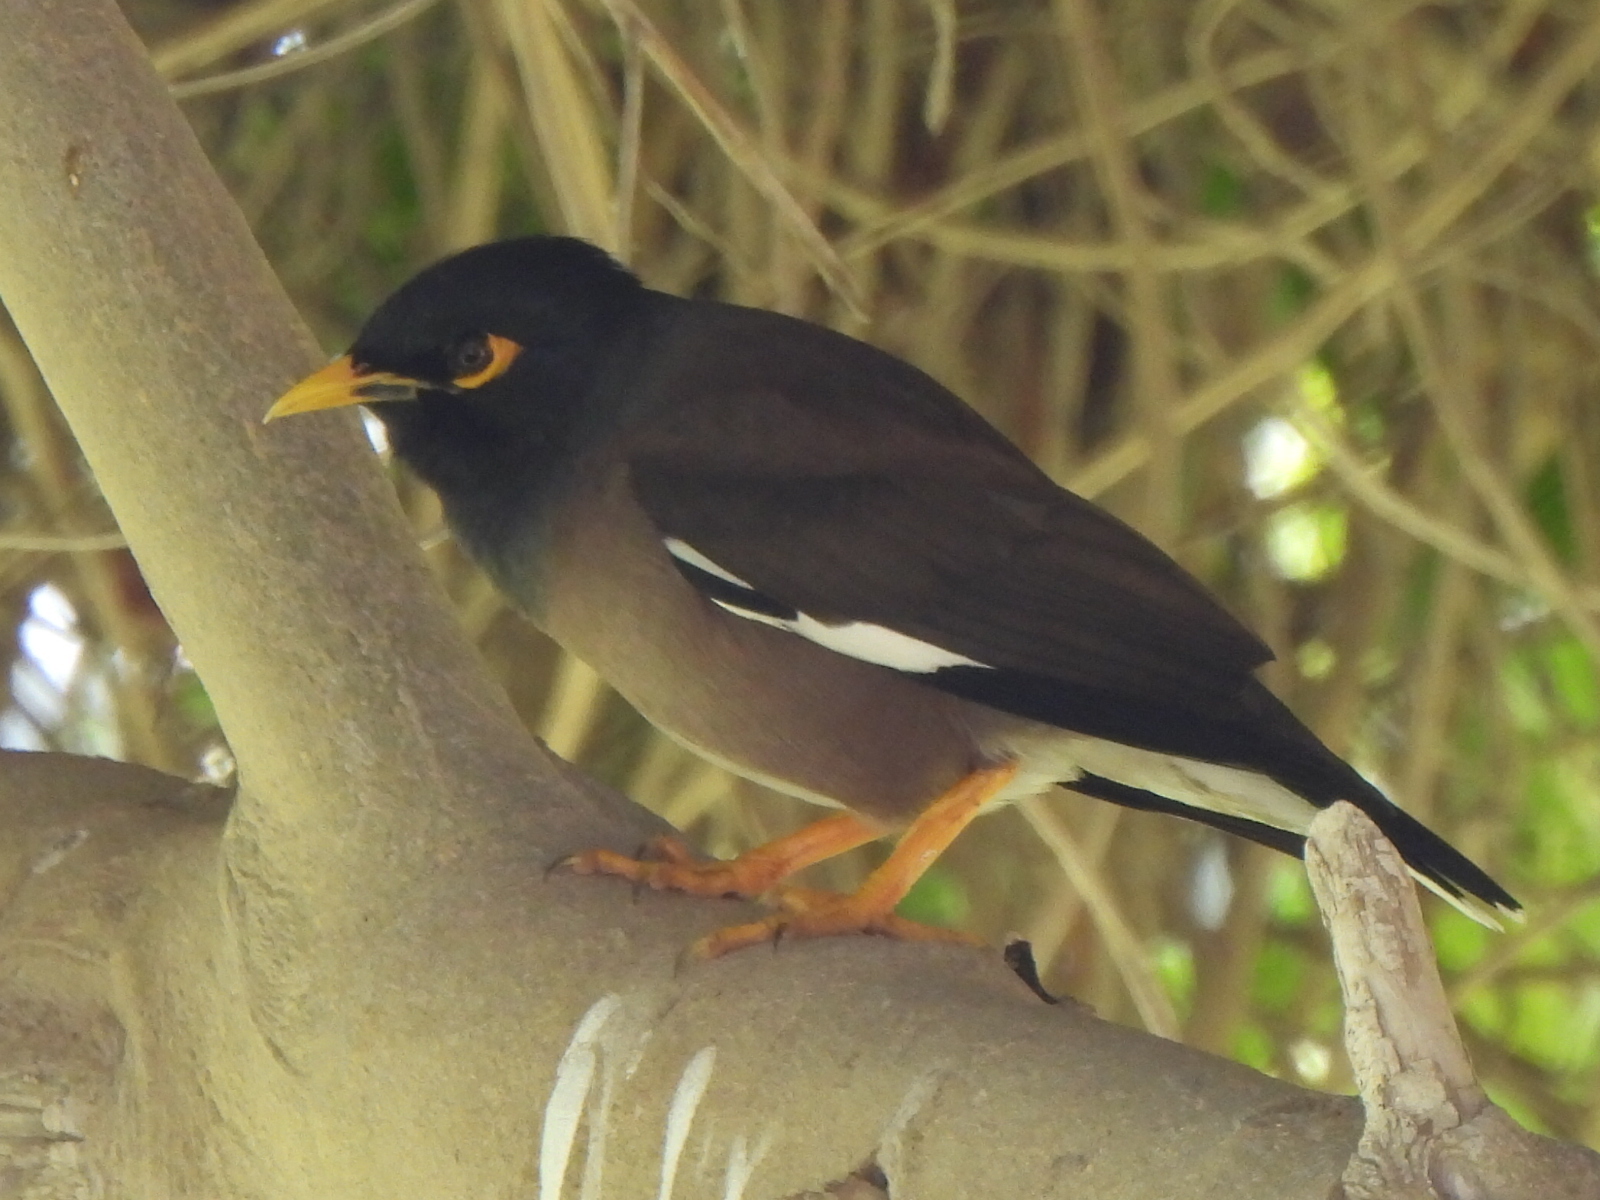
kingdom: Animalia
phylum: Chordata
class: Aves
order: Passeriformes
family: Sturnidae
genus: Acridotheres
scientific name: Acridotheres tristis
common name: Common myna
